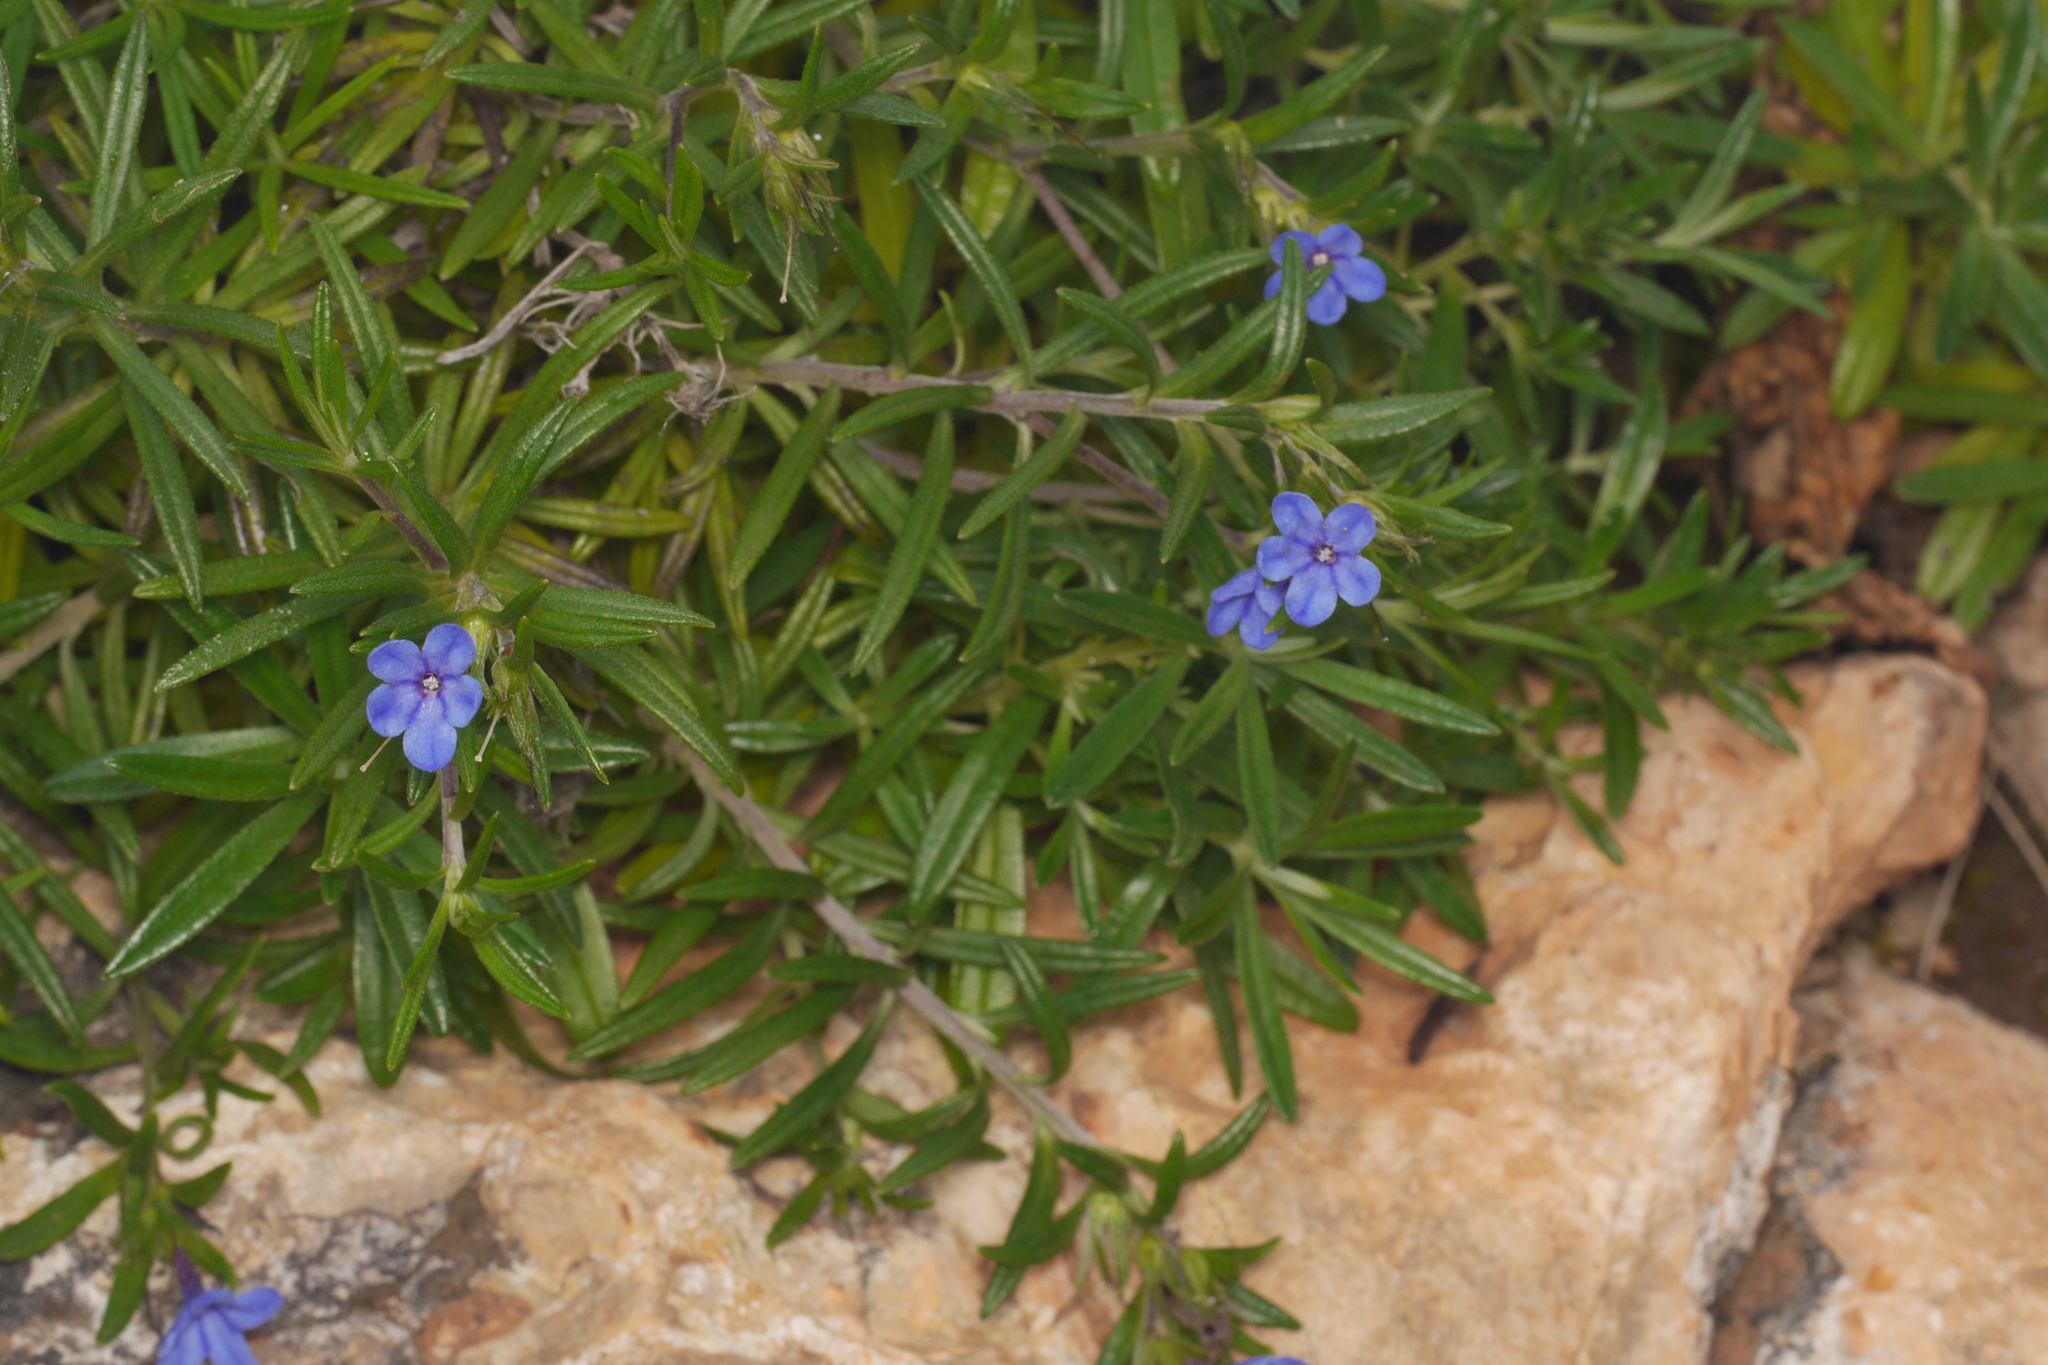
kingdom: Plantae
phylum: Tracheophyta
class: Magnoliopsida
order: Boraginales
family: Boraginaceae
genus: Glandora
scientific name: Glandora rosmarinifolia
